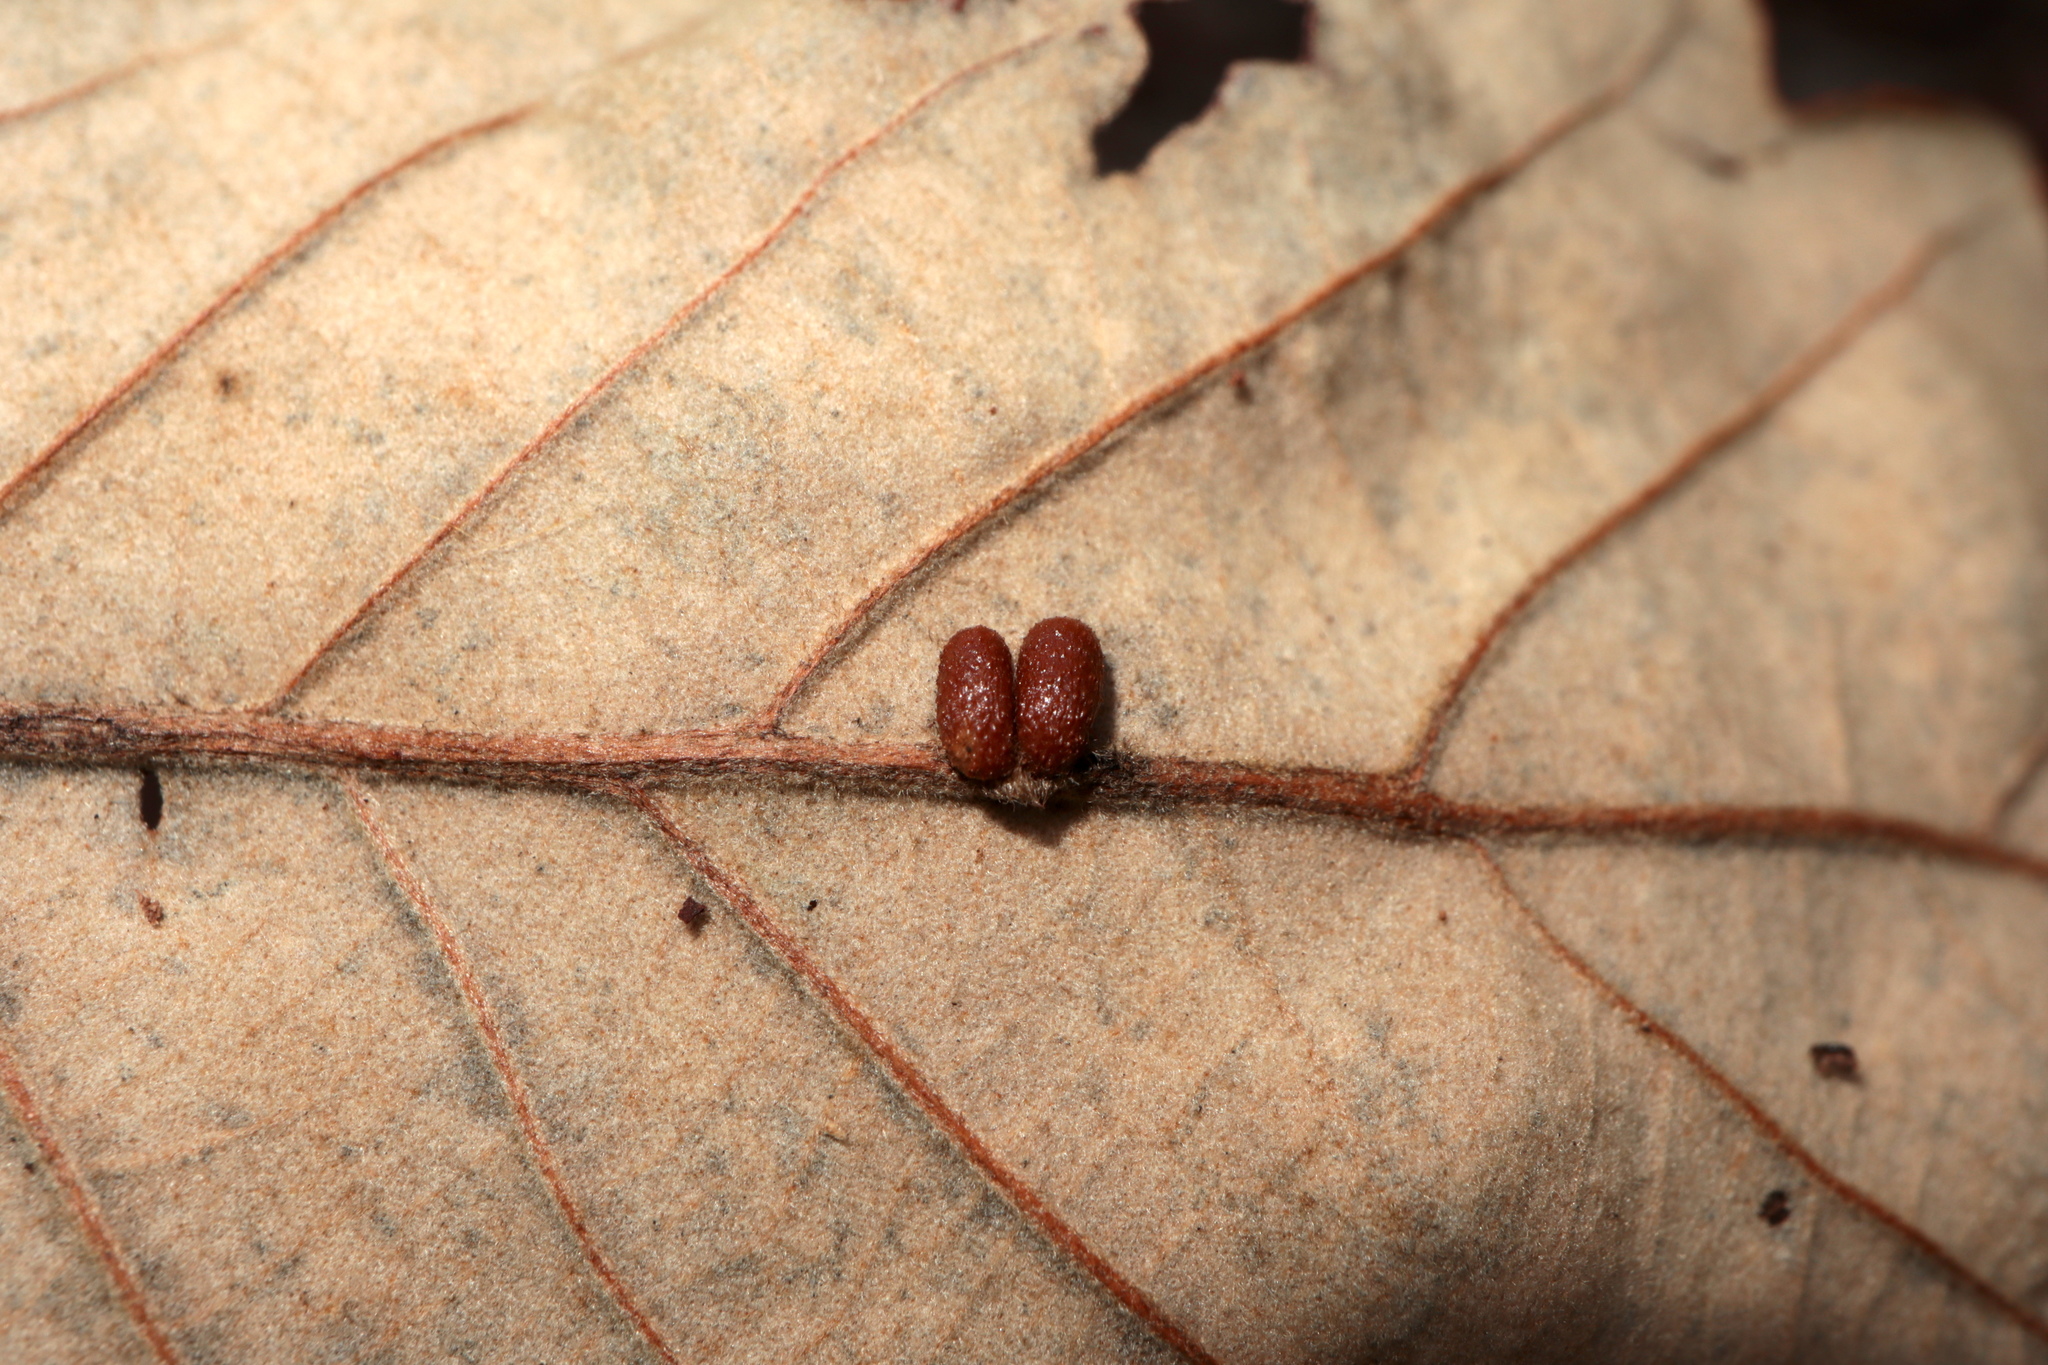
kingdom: Animalia
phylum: Arthropoda
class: Insecta
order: Hymenoptera
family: Cynipidae
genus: Andricus
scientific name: Andricus Druon ignotum
